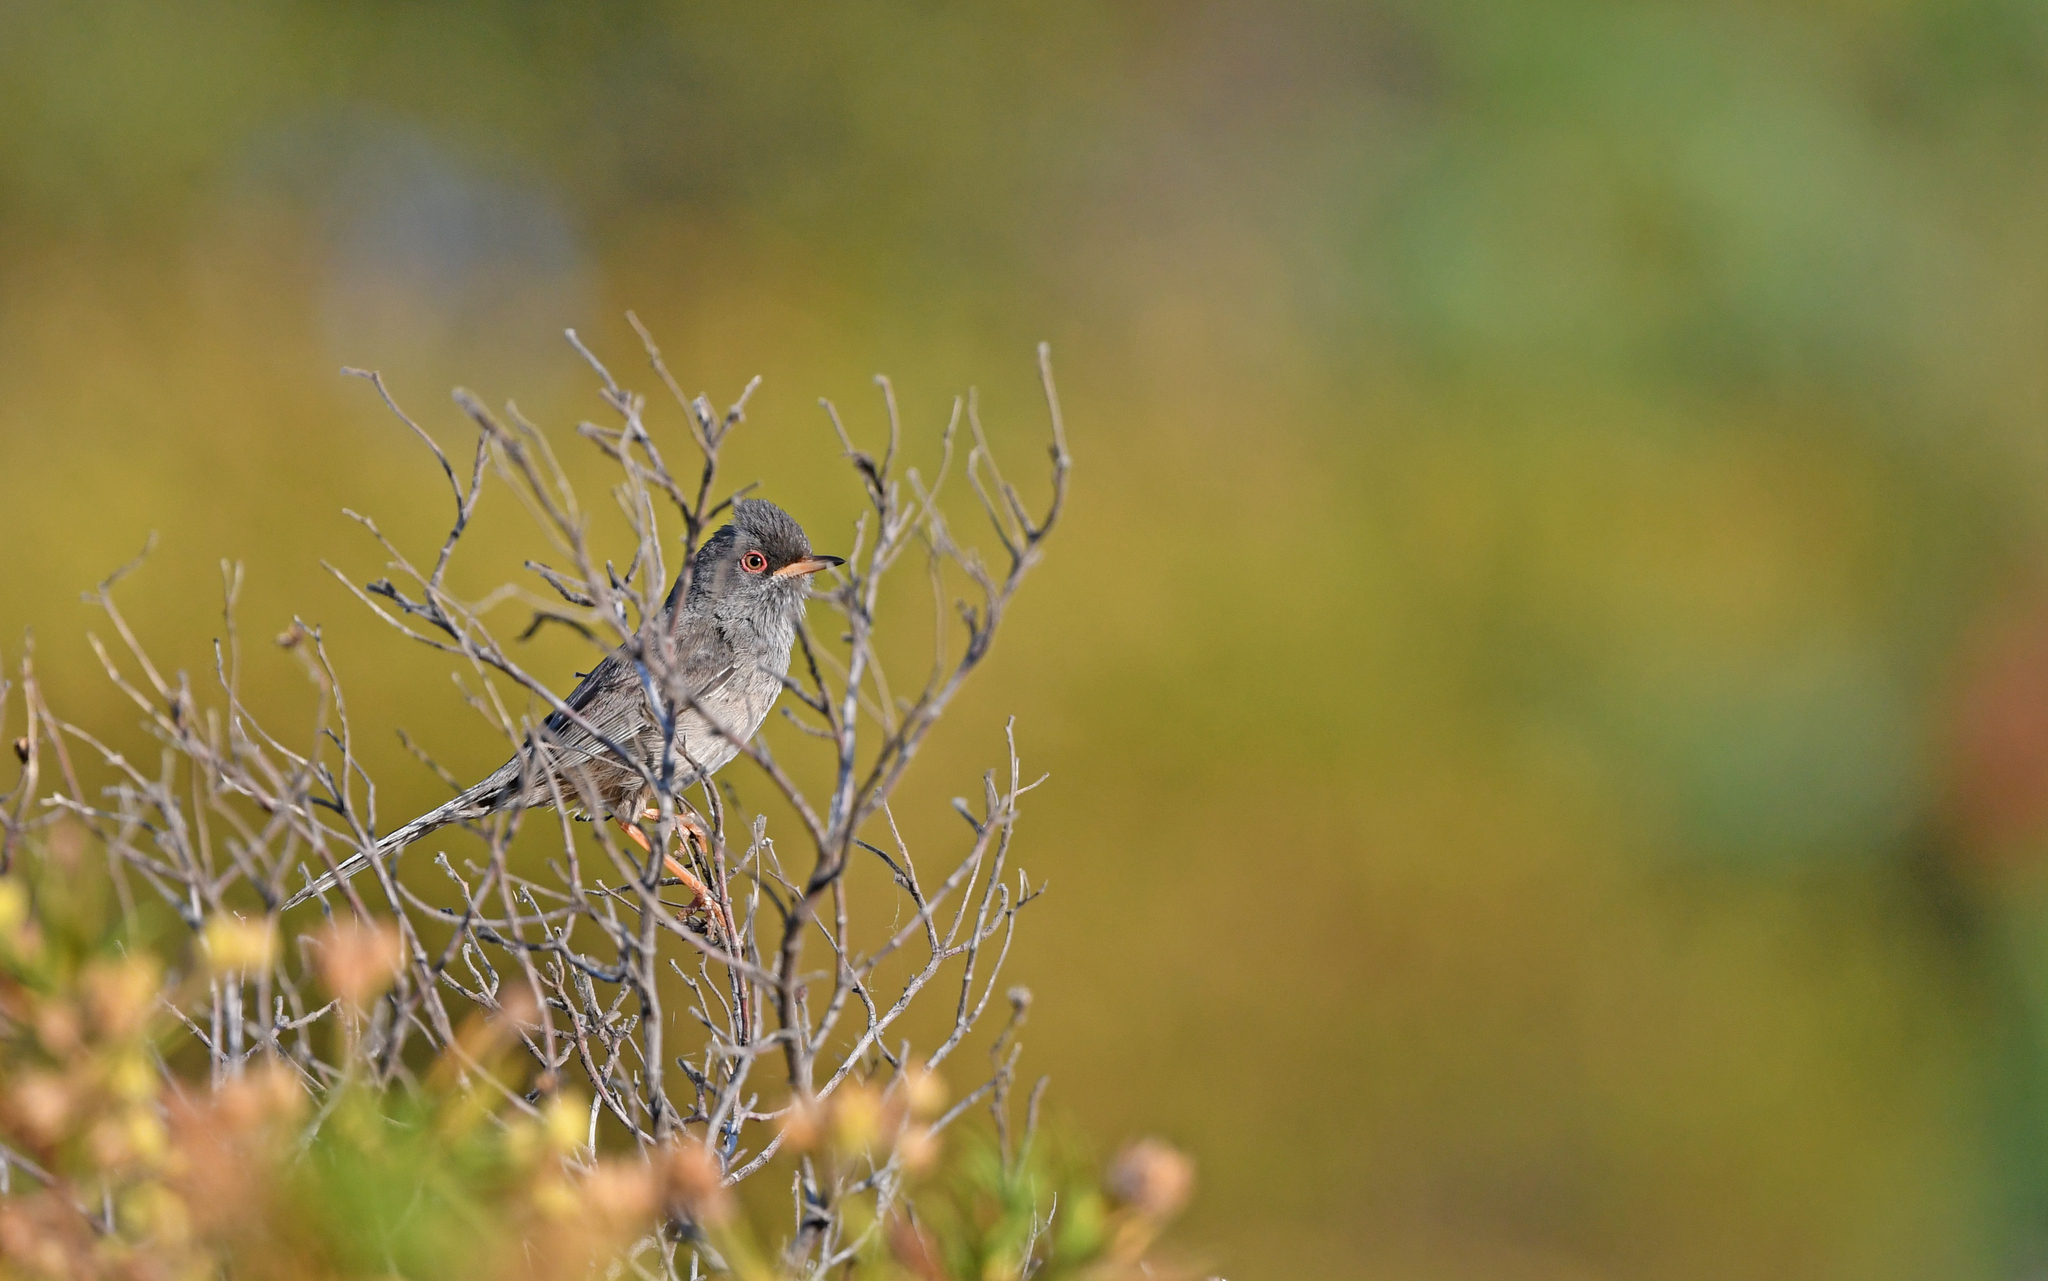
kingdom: Animalia
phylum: Chordata
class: Aves
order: Passeriformes
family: Sylviidae
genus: Sylvia
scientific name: Sylvia sarda
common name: Marmora's warbler
